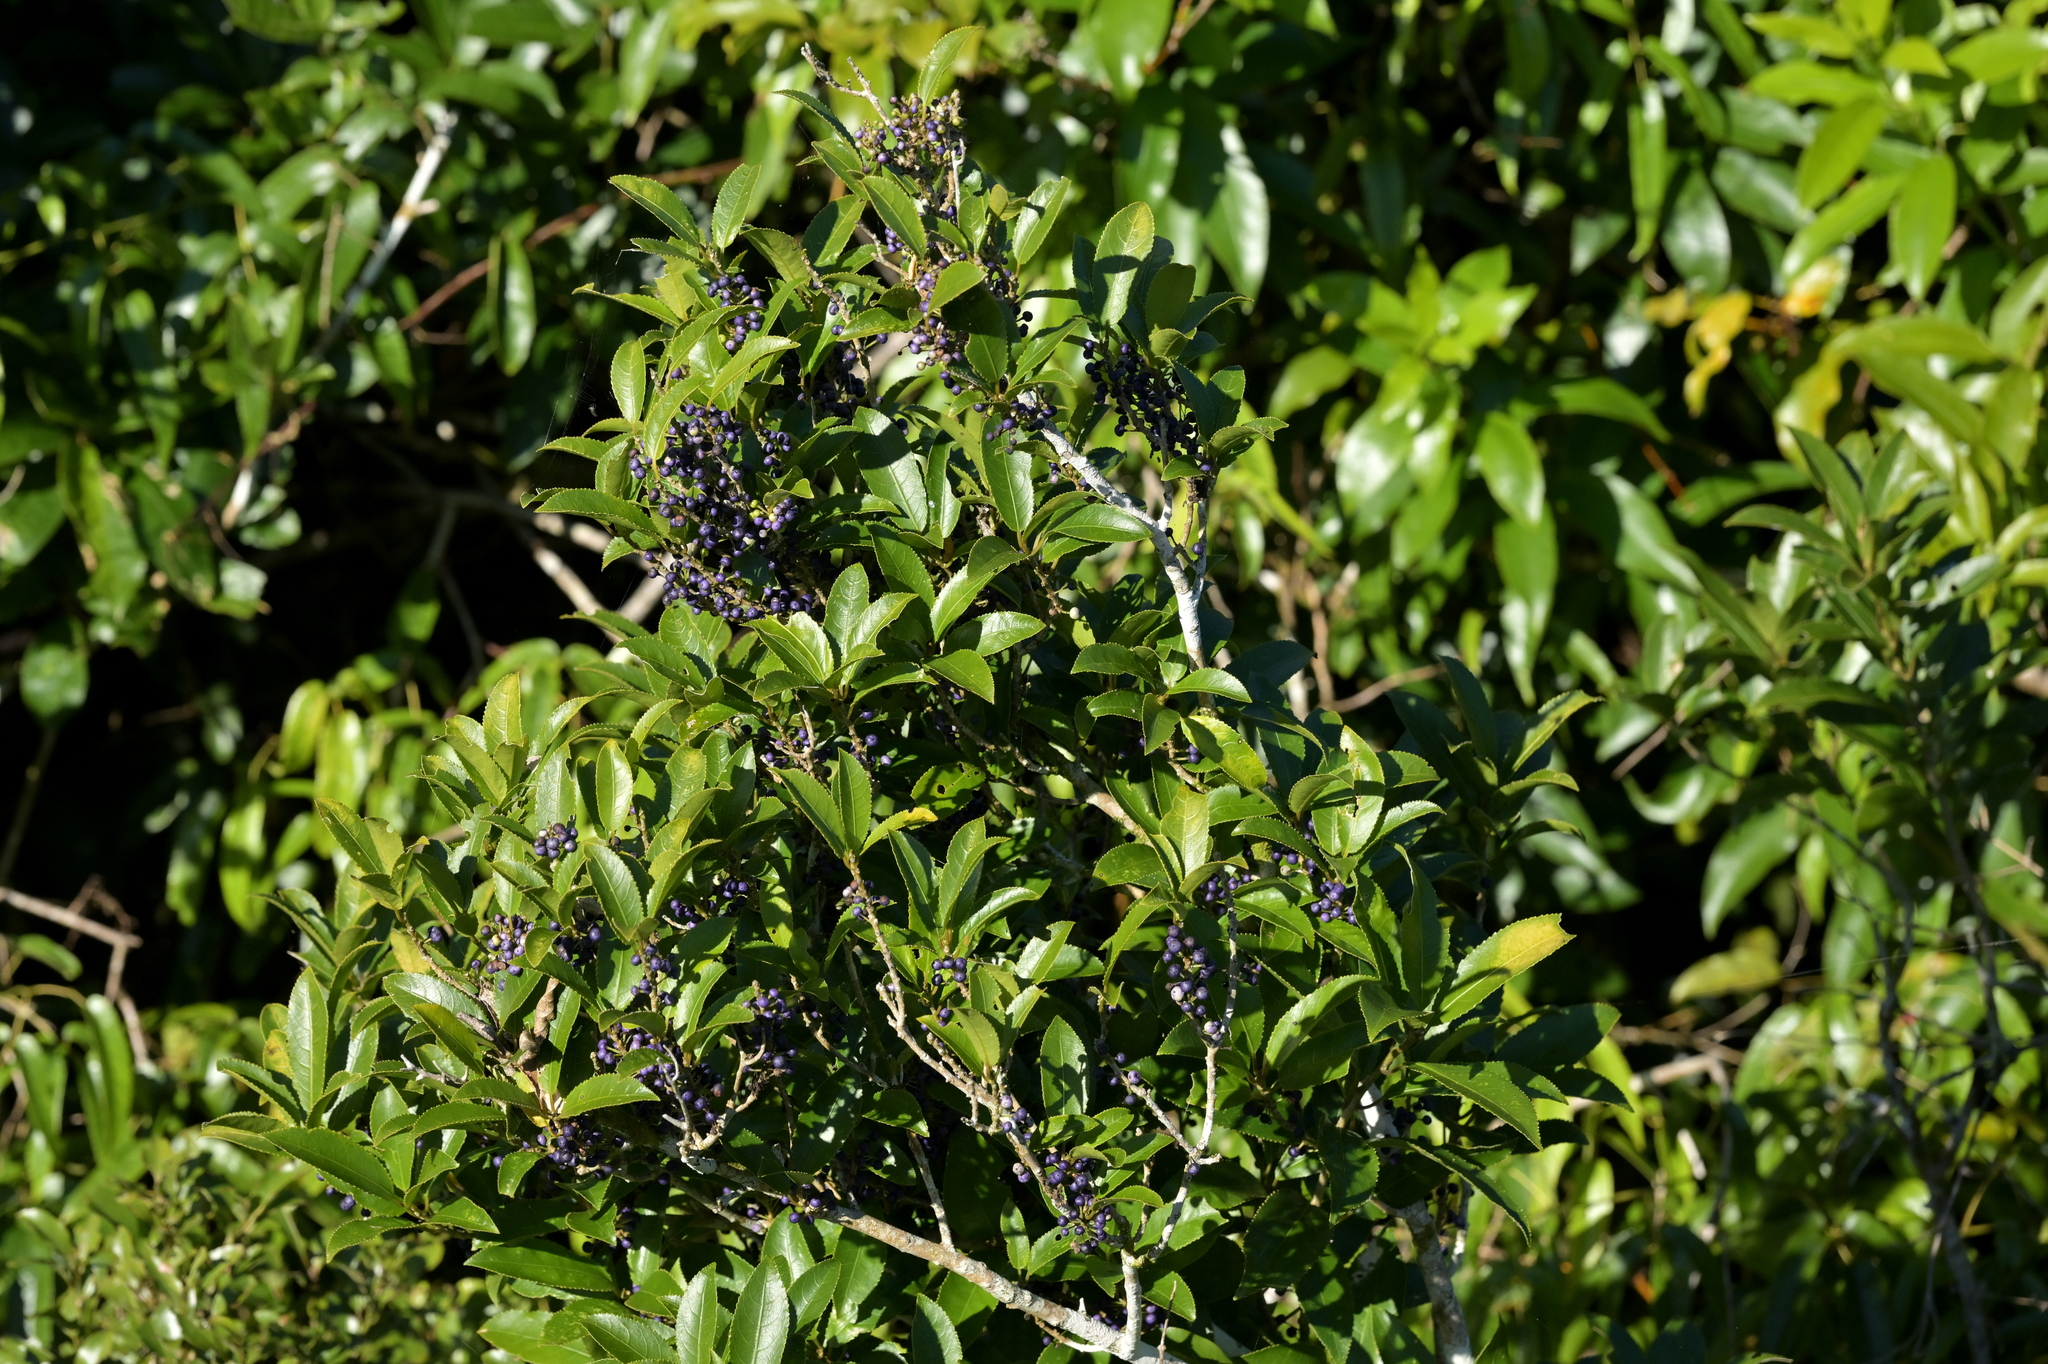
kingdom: Plantae
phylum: Tracheophyta
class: Magnoliopsida
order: Malpighiales
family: Violaceae
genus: Melicytus
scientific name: Melicytus ramiflorus
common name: Mahoe
